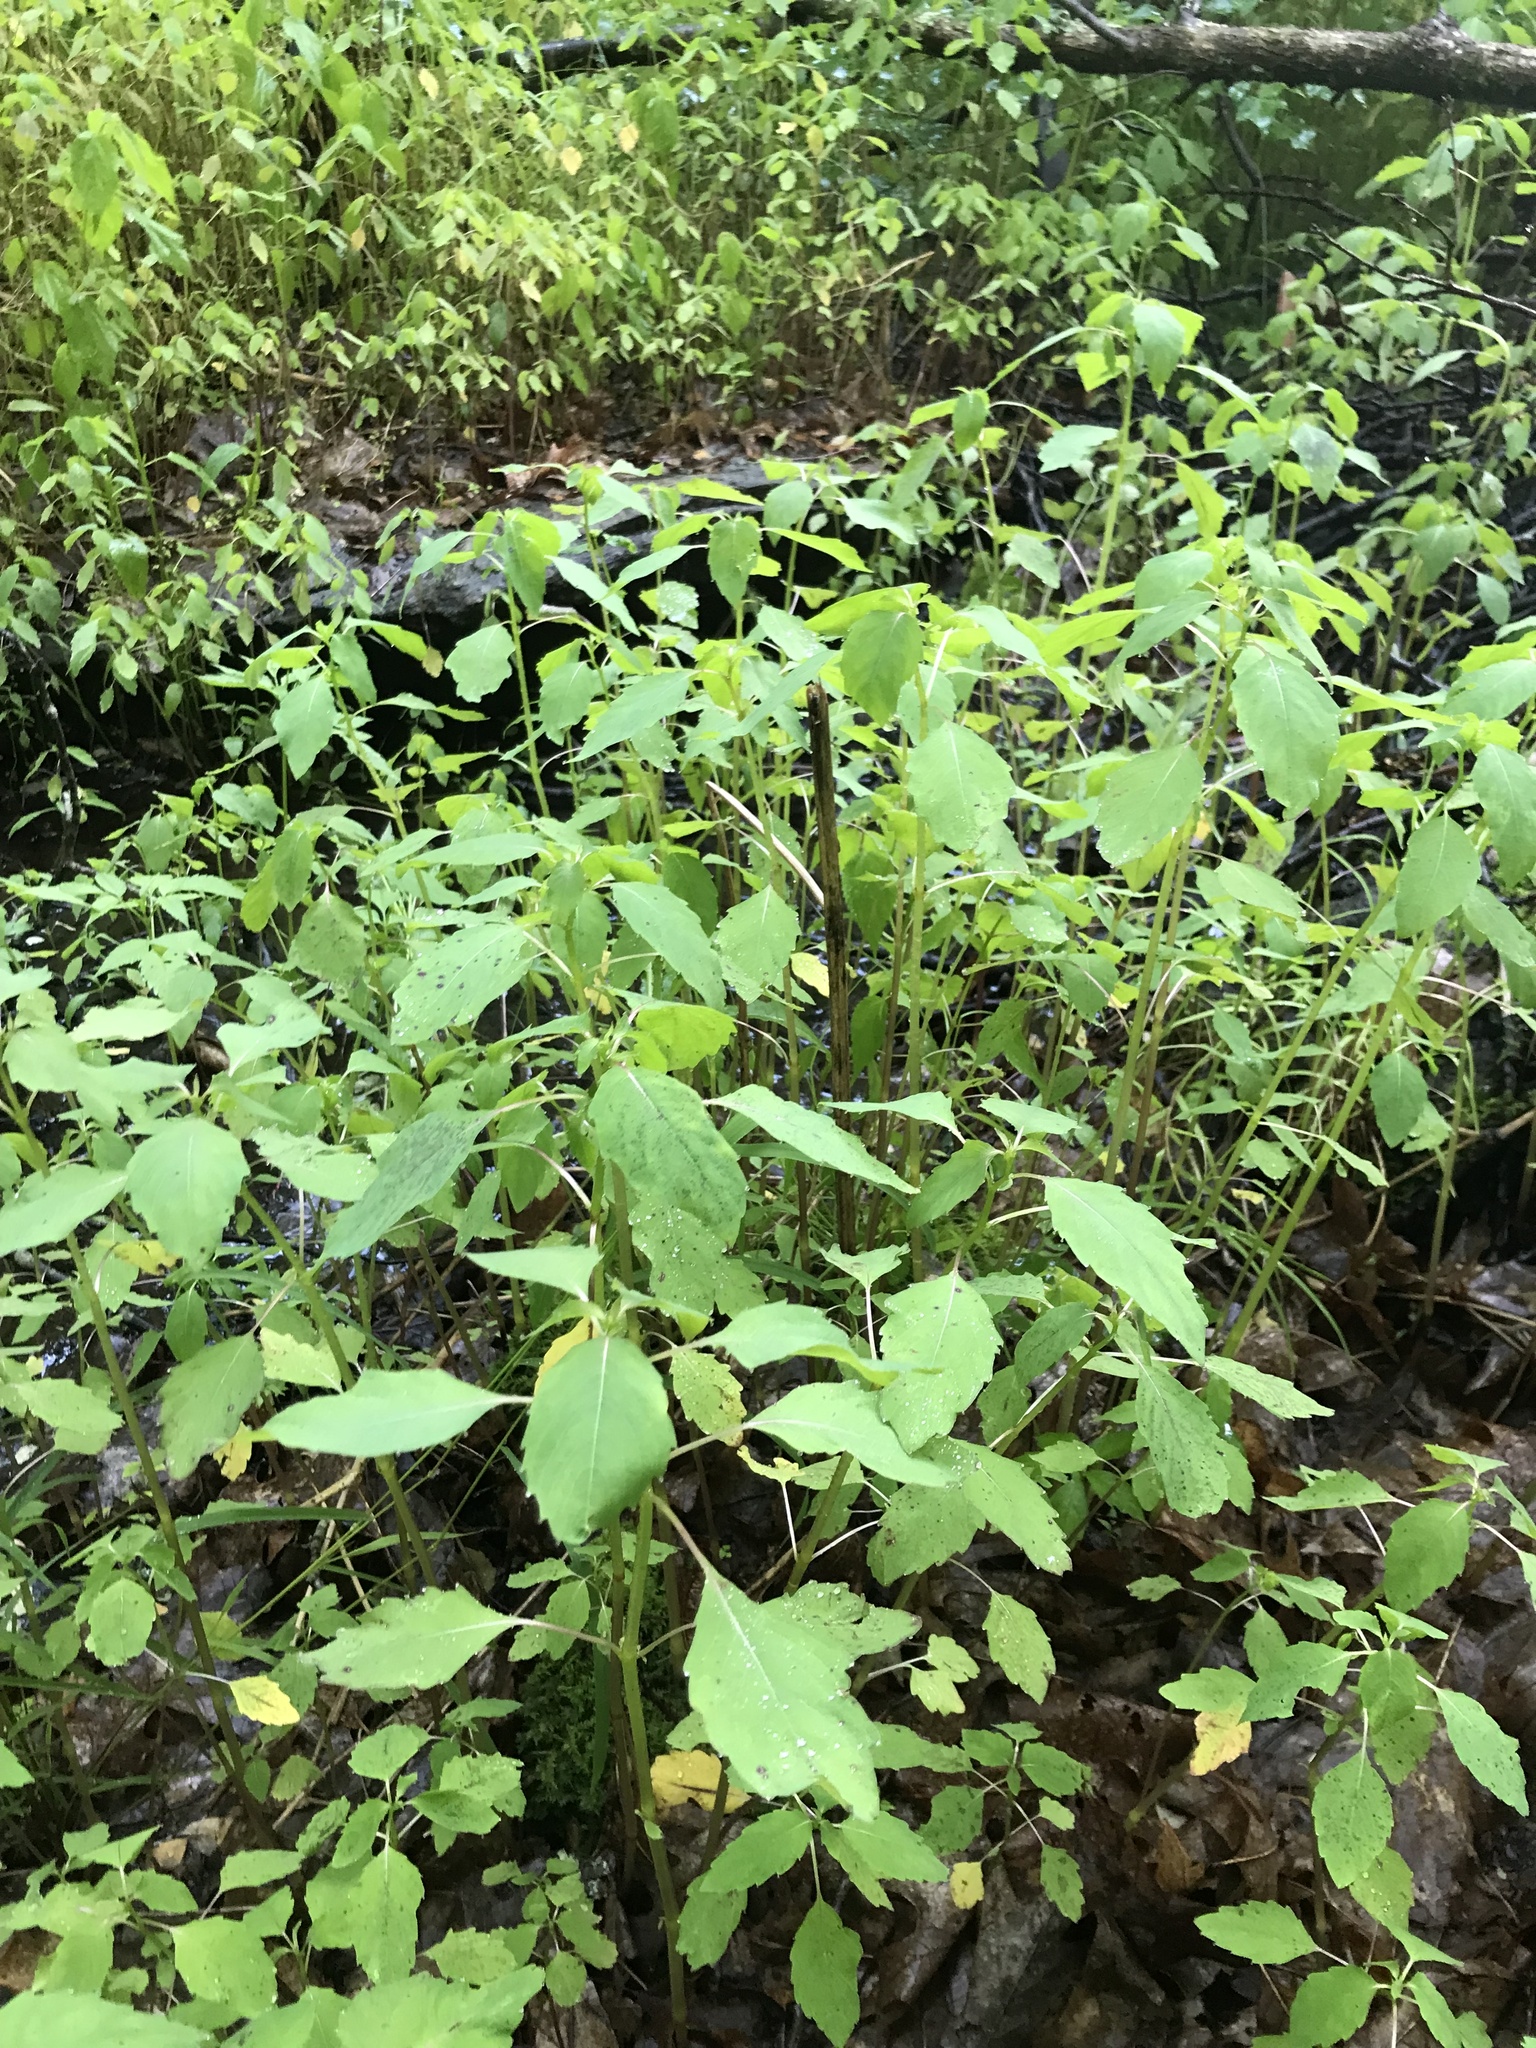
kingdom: Plantae
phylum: Tracheophyta
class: Magnoliopsida
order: Ericales
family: Balsaminaceae
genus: Impatiens
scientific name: Impatiens
